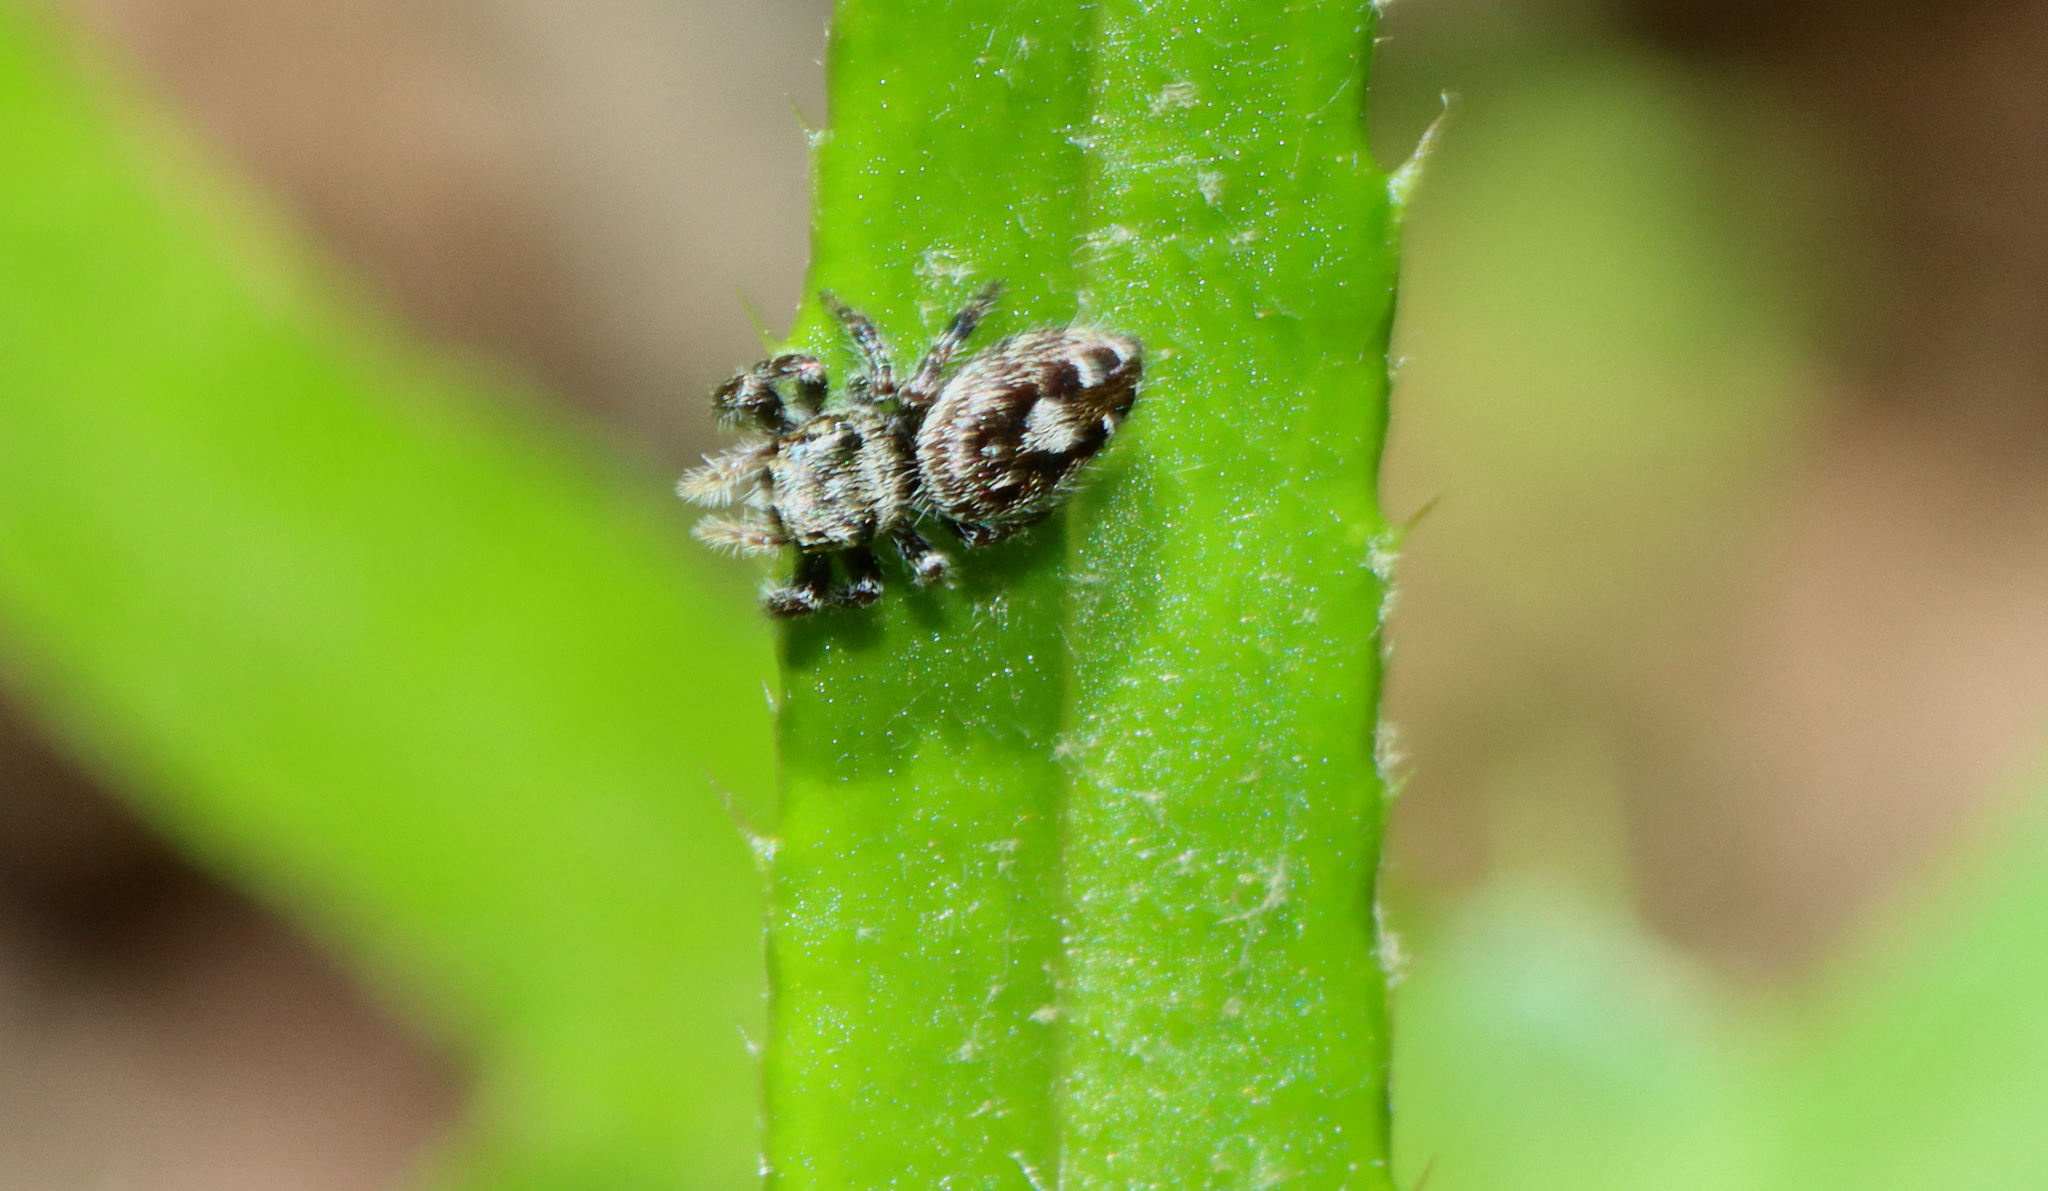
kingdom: Animalia
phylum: Arthropoda
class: Arachnida
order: Araneae
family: Salticidae
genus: Phidippus
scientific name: Phidippus putnami
